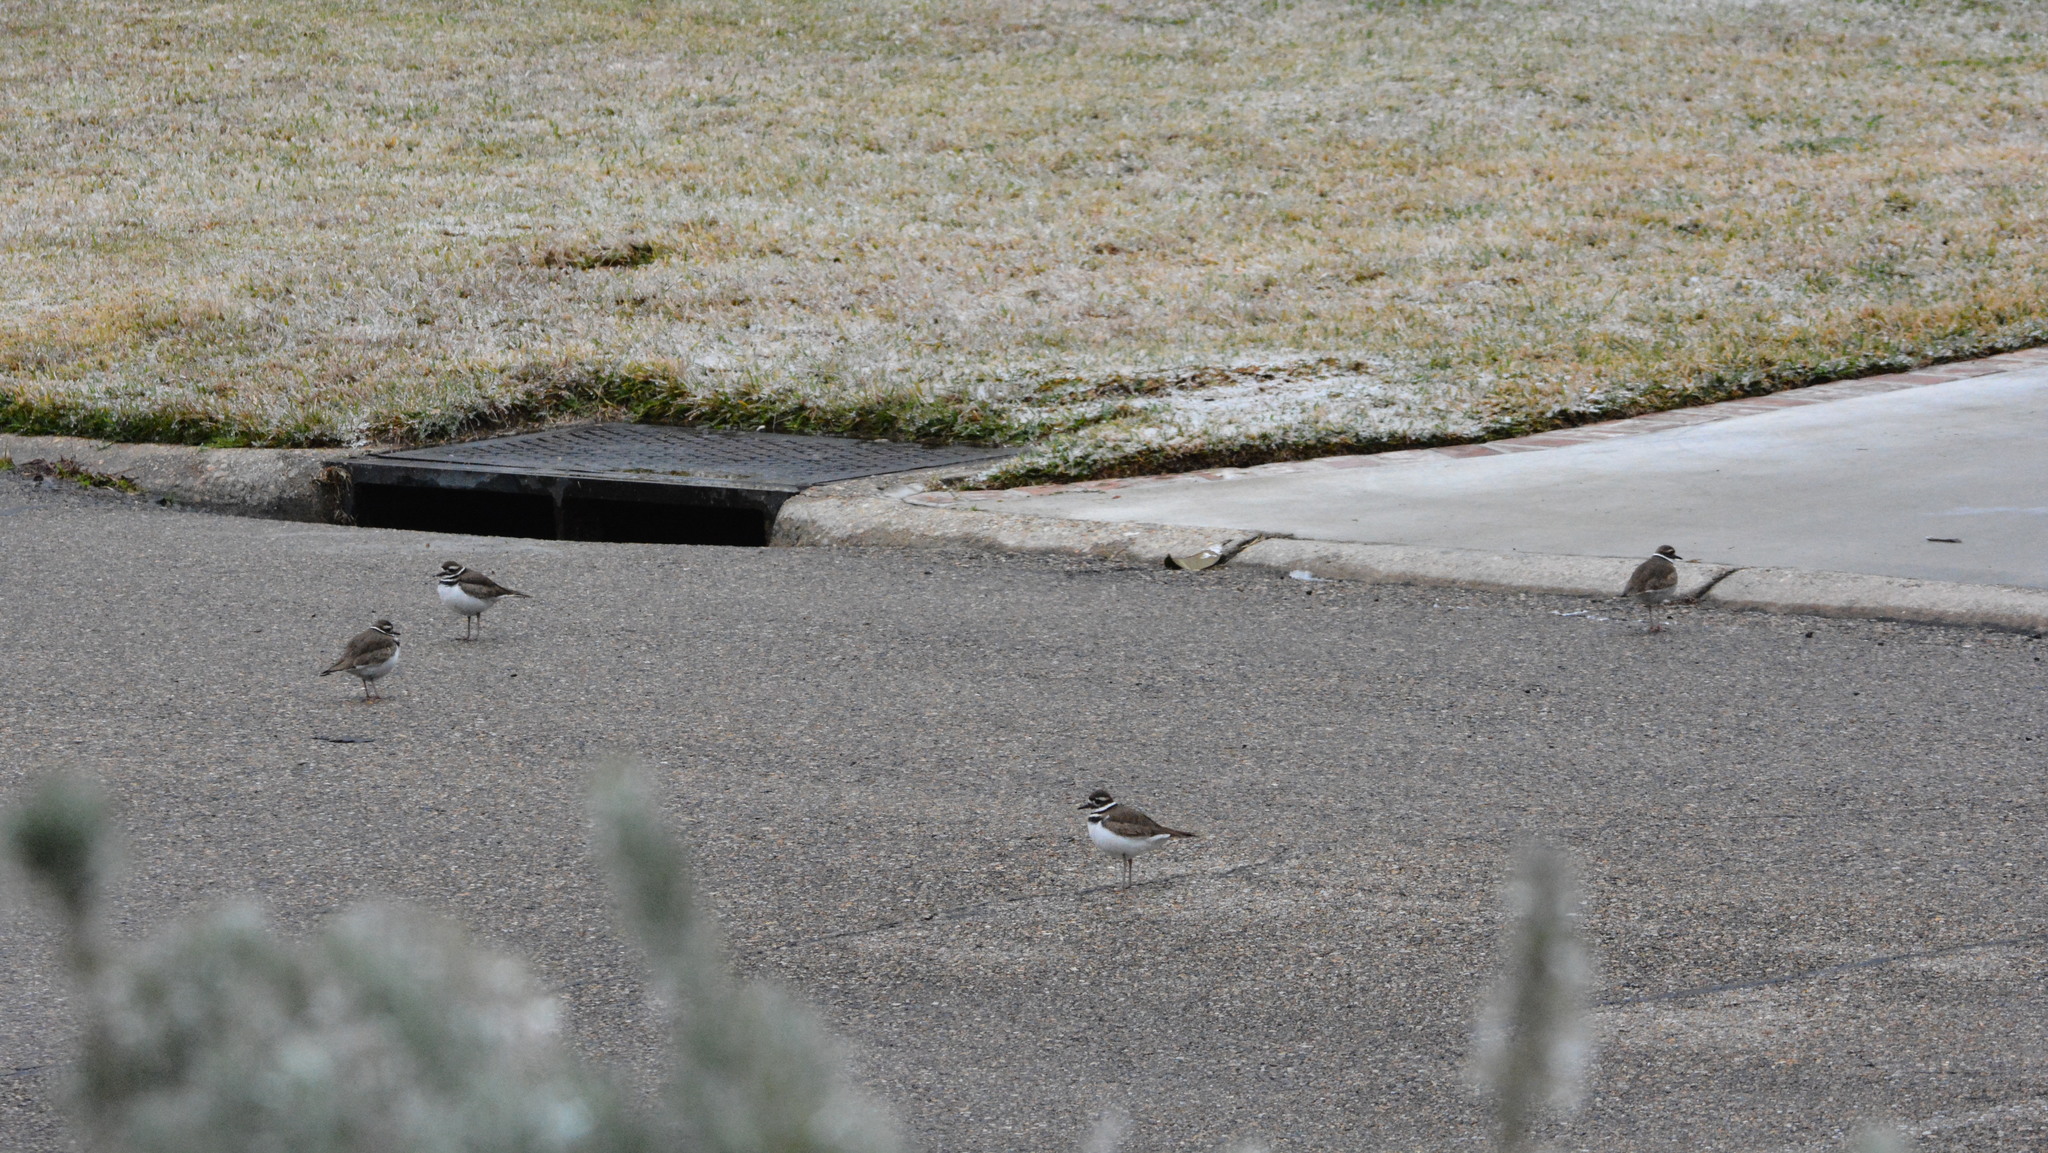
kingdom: Animalia
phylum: Chordata
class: Aves
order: Charadriiformes
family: Charadriidae
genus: Charadrius
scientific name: Charadrius vociferus
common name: Killdeer
